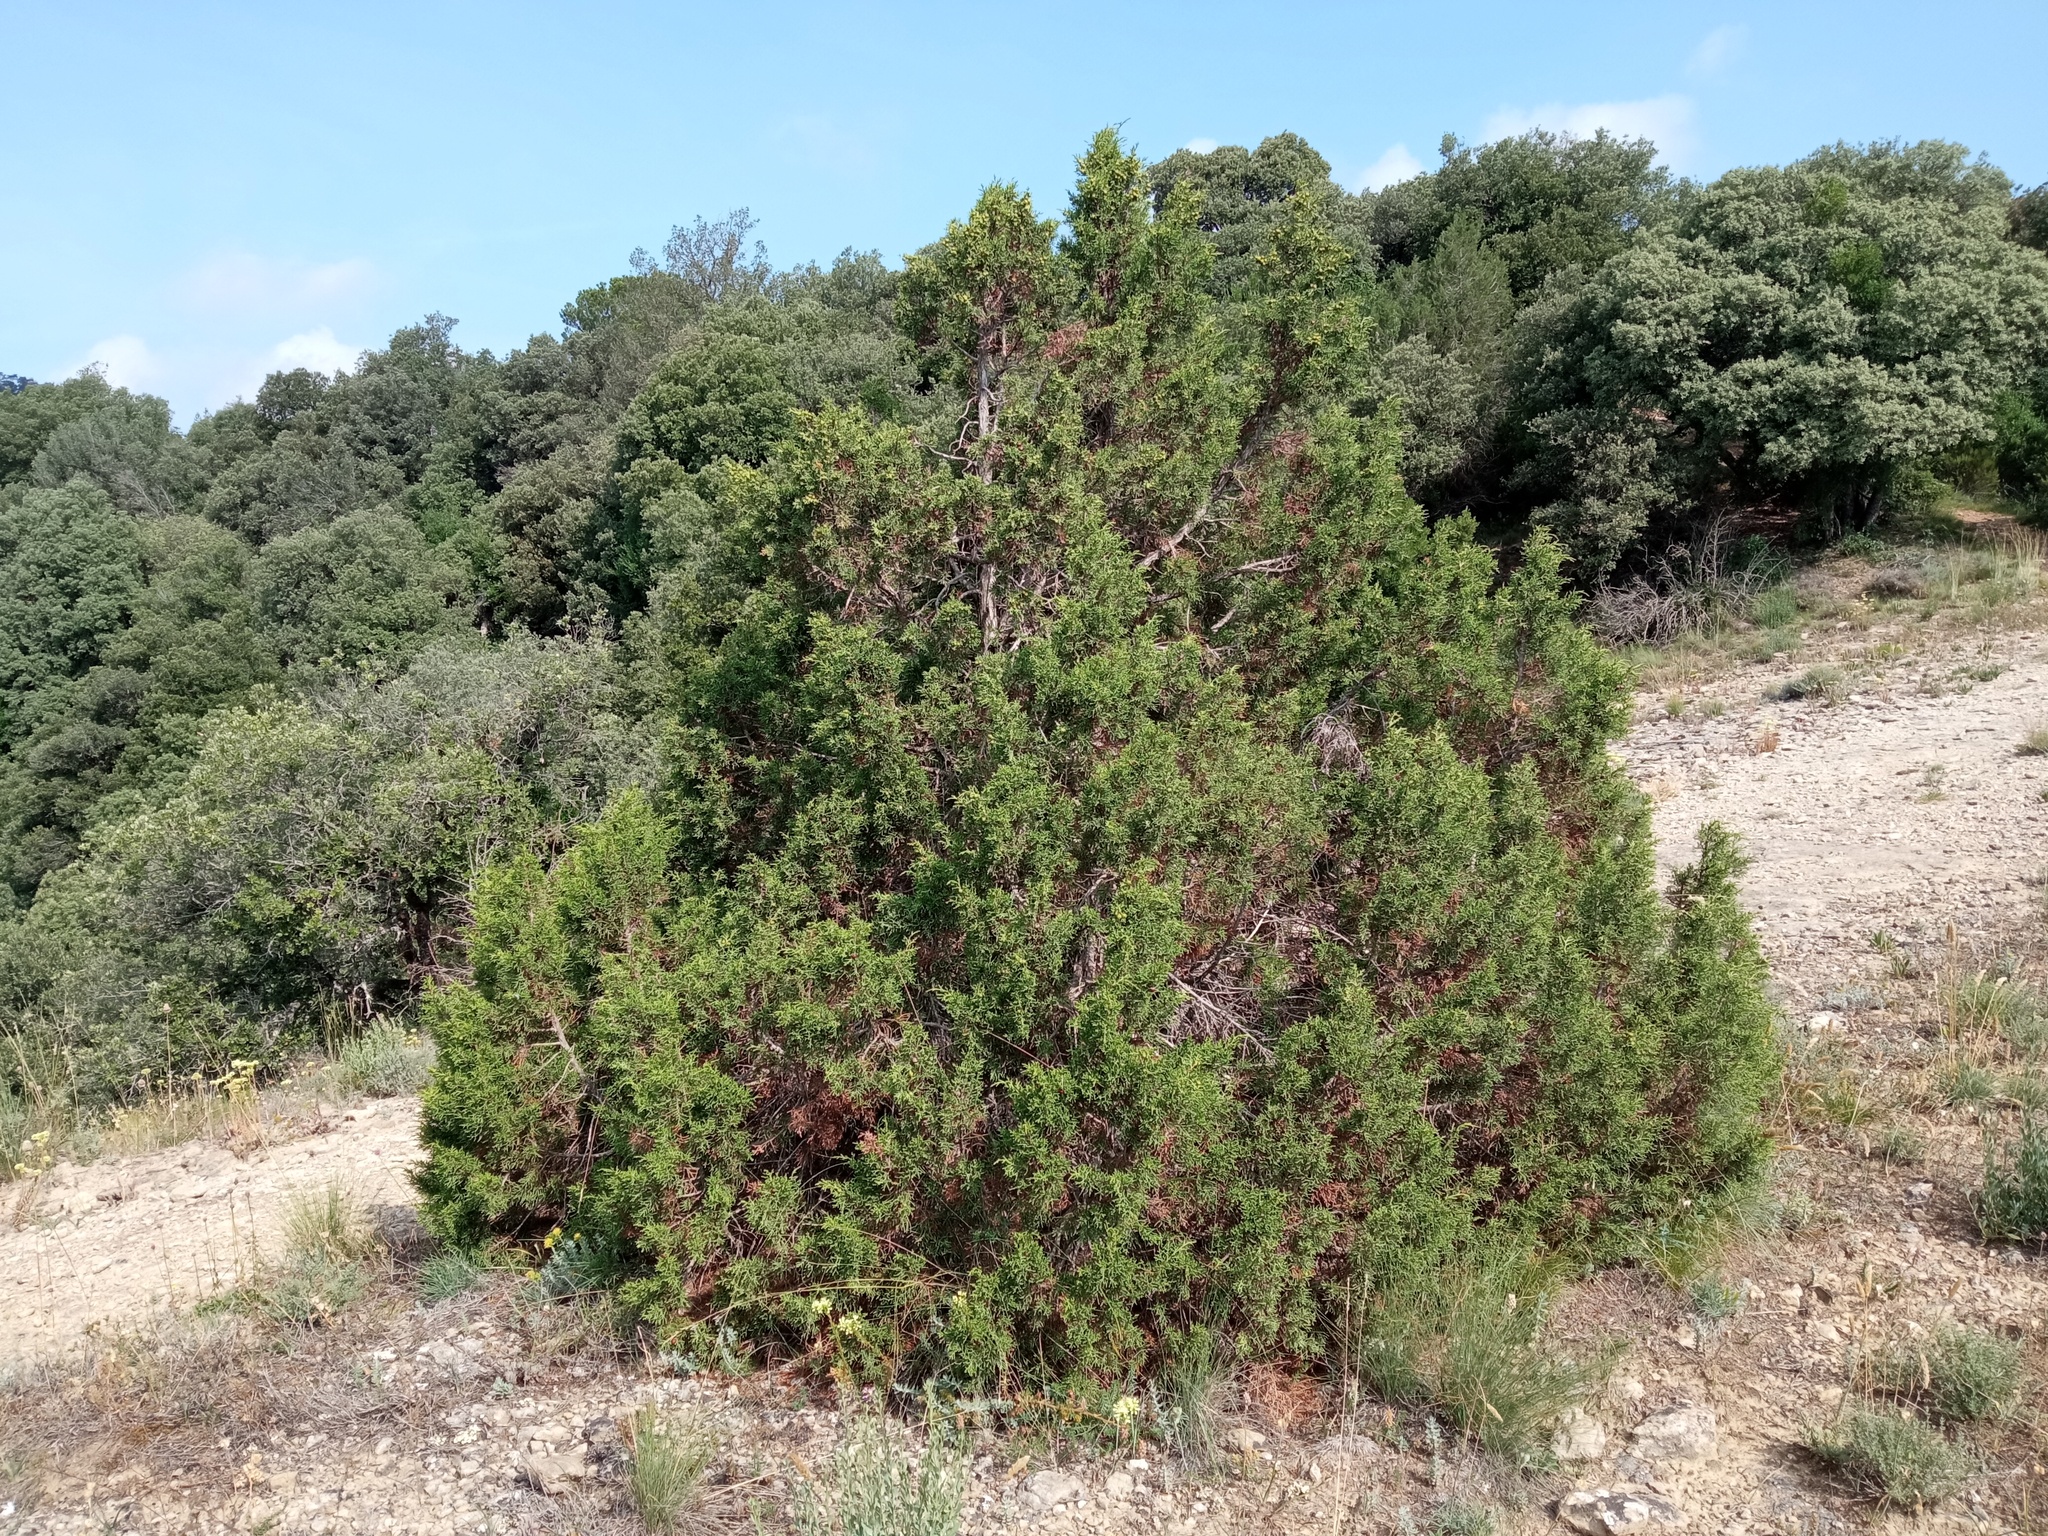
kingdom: Plantae
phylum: Tracheophyta
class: Pinopsida
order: Pinales
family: Cupressaceae
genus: Juniperus
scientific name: Juniperus phoenicea
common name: Phoenician juniper
